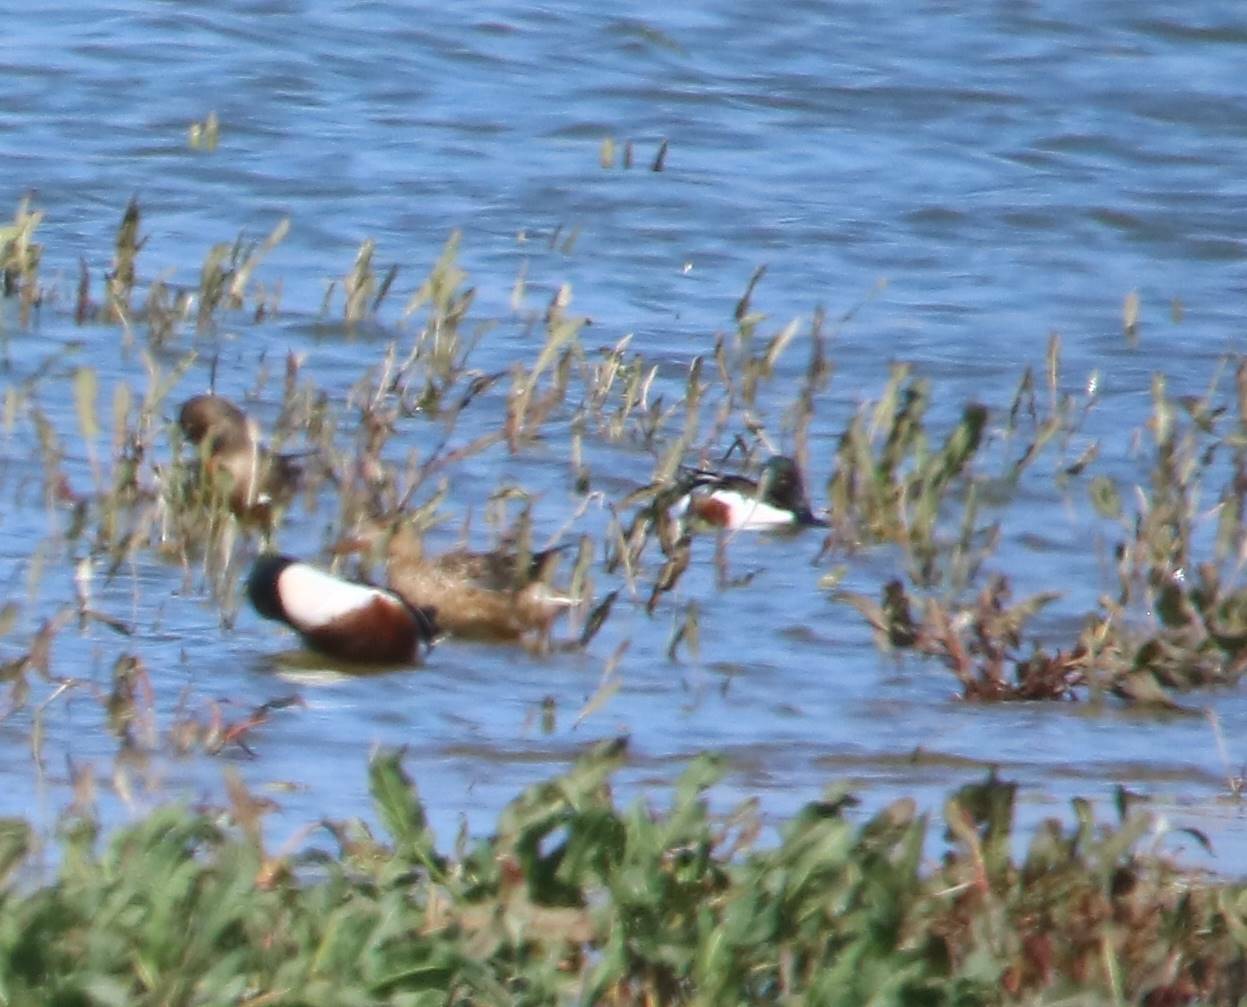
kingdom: Animalia
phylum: Chordata
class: Aves
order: Anseriformes
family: Anatidae
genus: Spatula
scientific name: Spatula clypeata
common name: Northern shoveler
